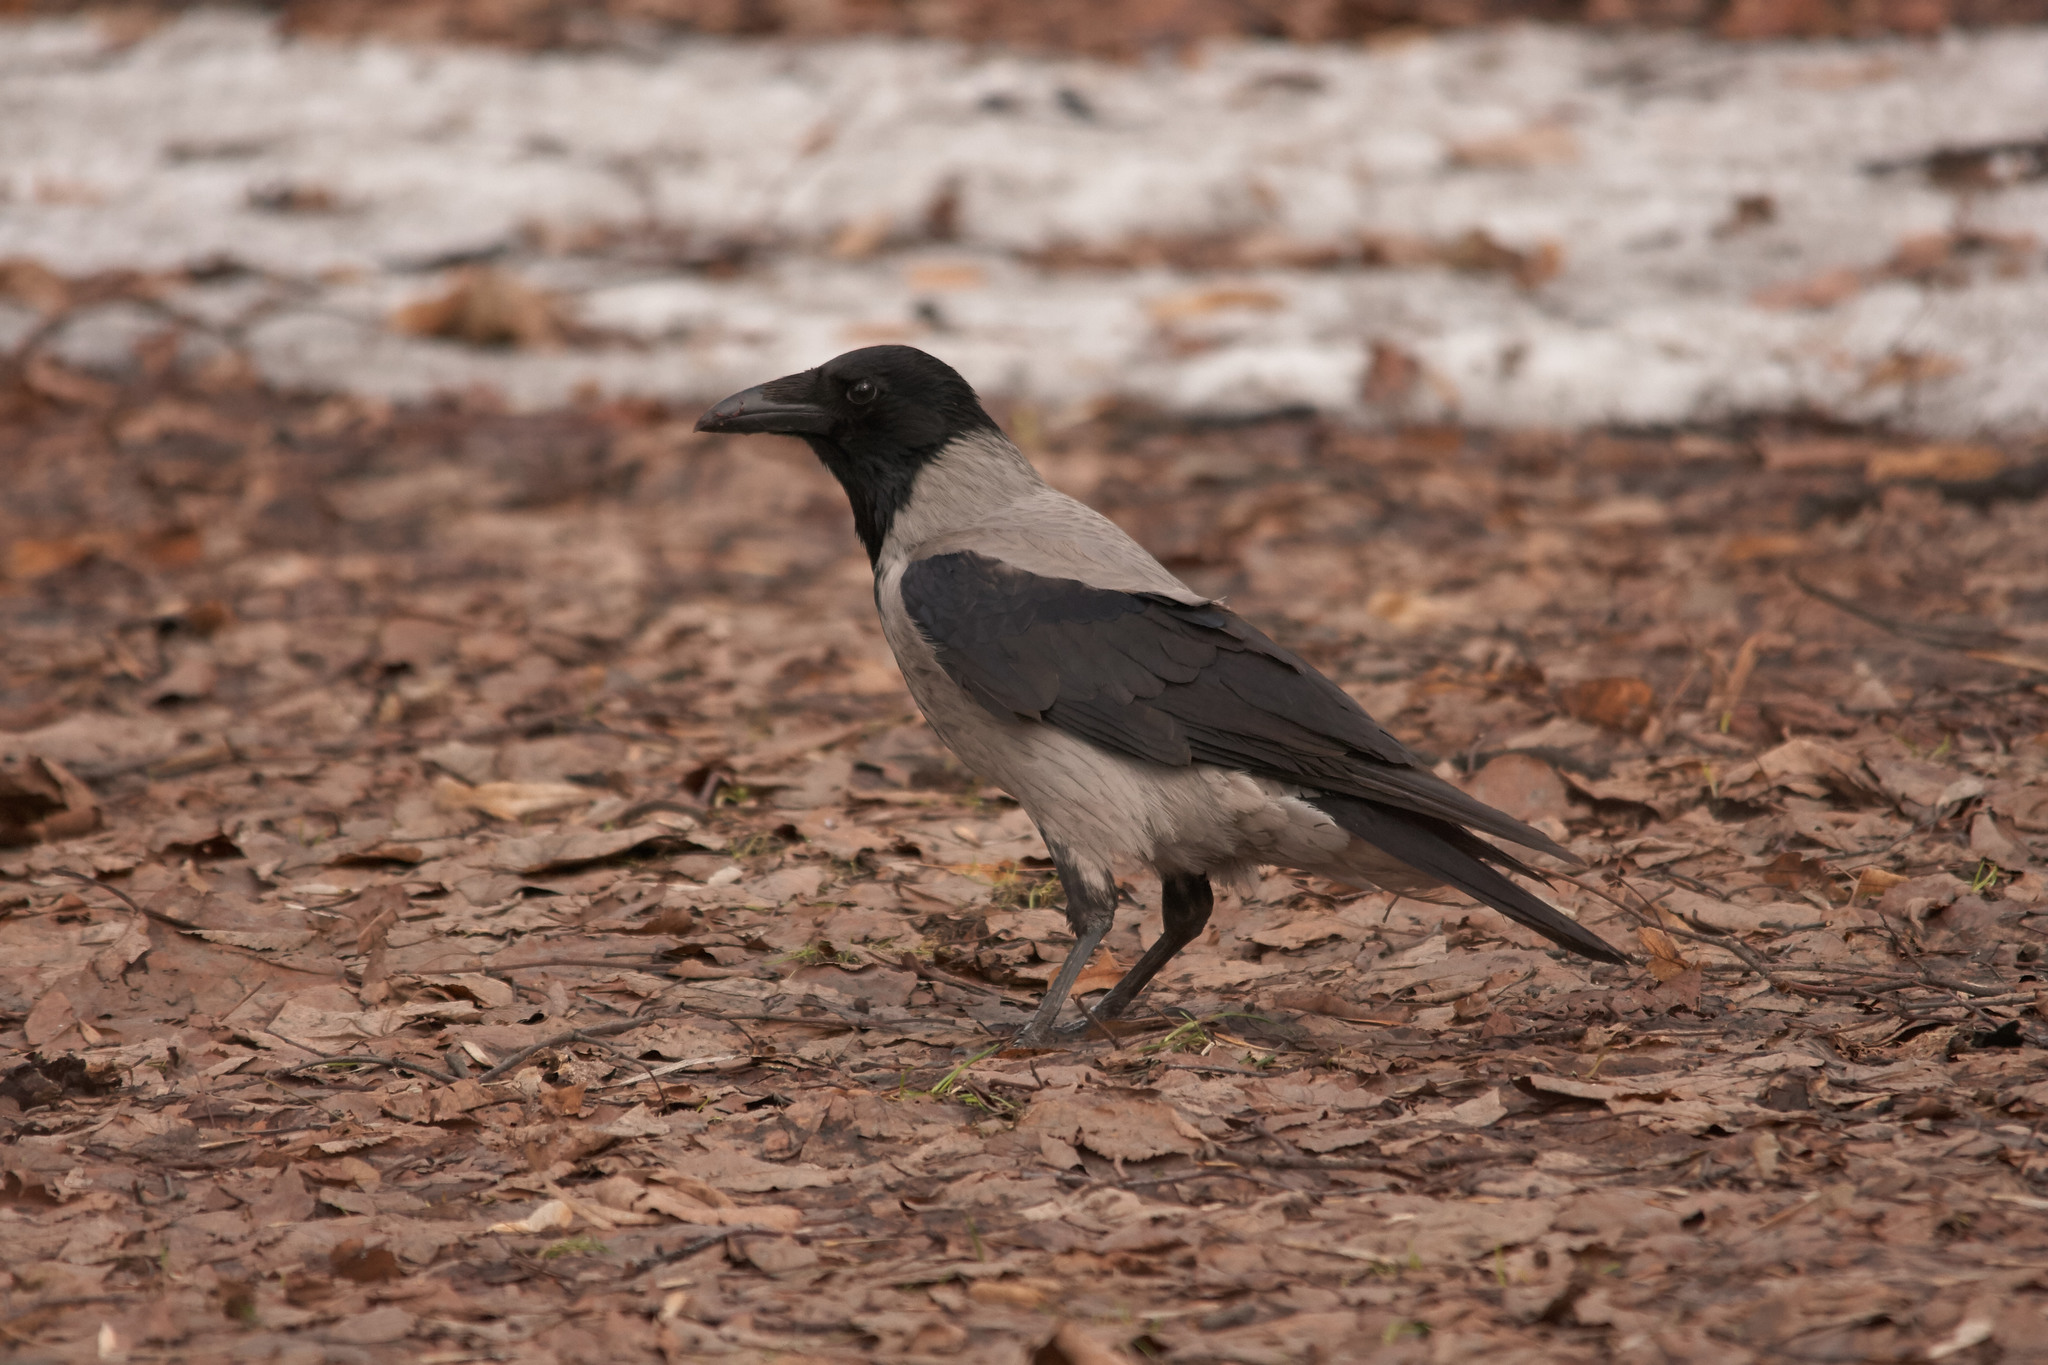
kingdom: Animalia
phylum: Chordata
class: Aves
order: Passeriformes
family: Corvidae
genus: Corvus
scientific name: Corvus cornix
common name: Hooded crow
